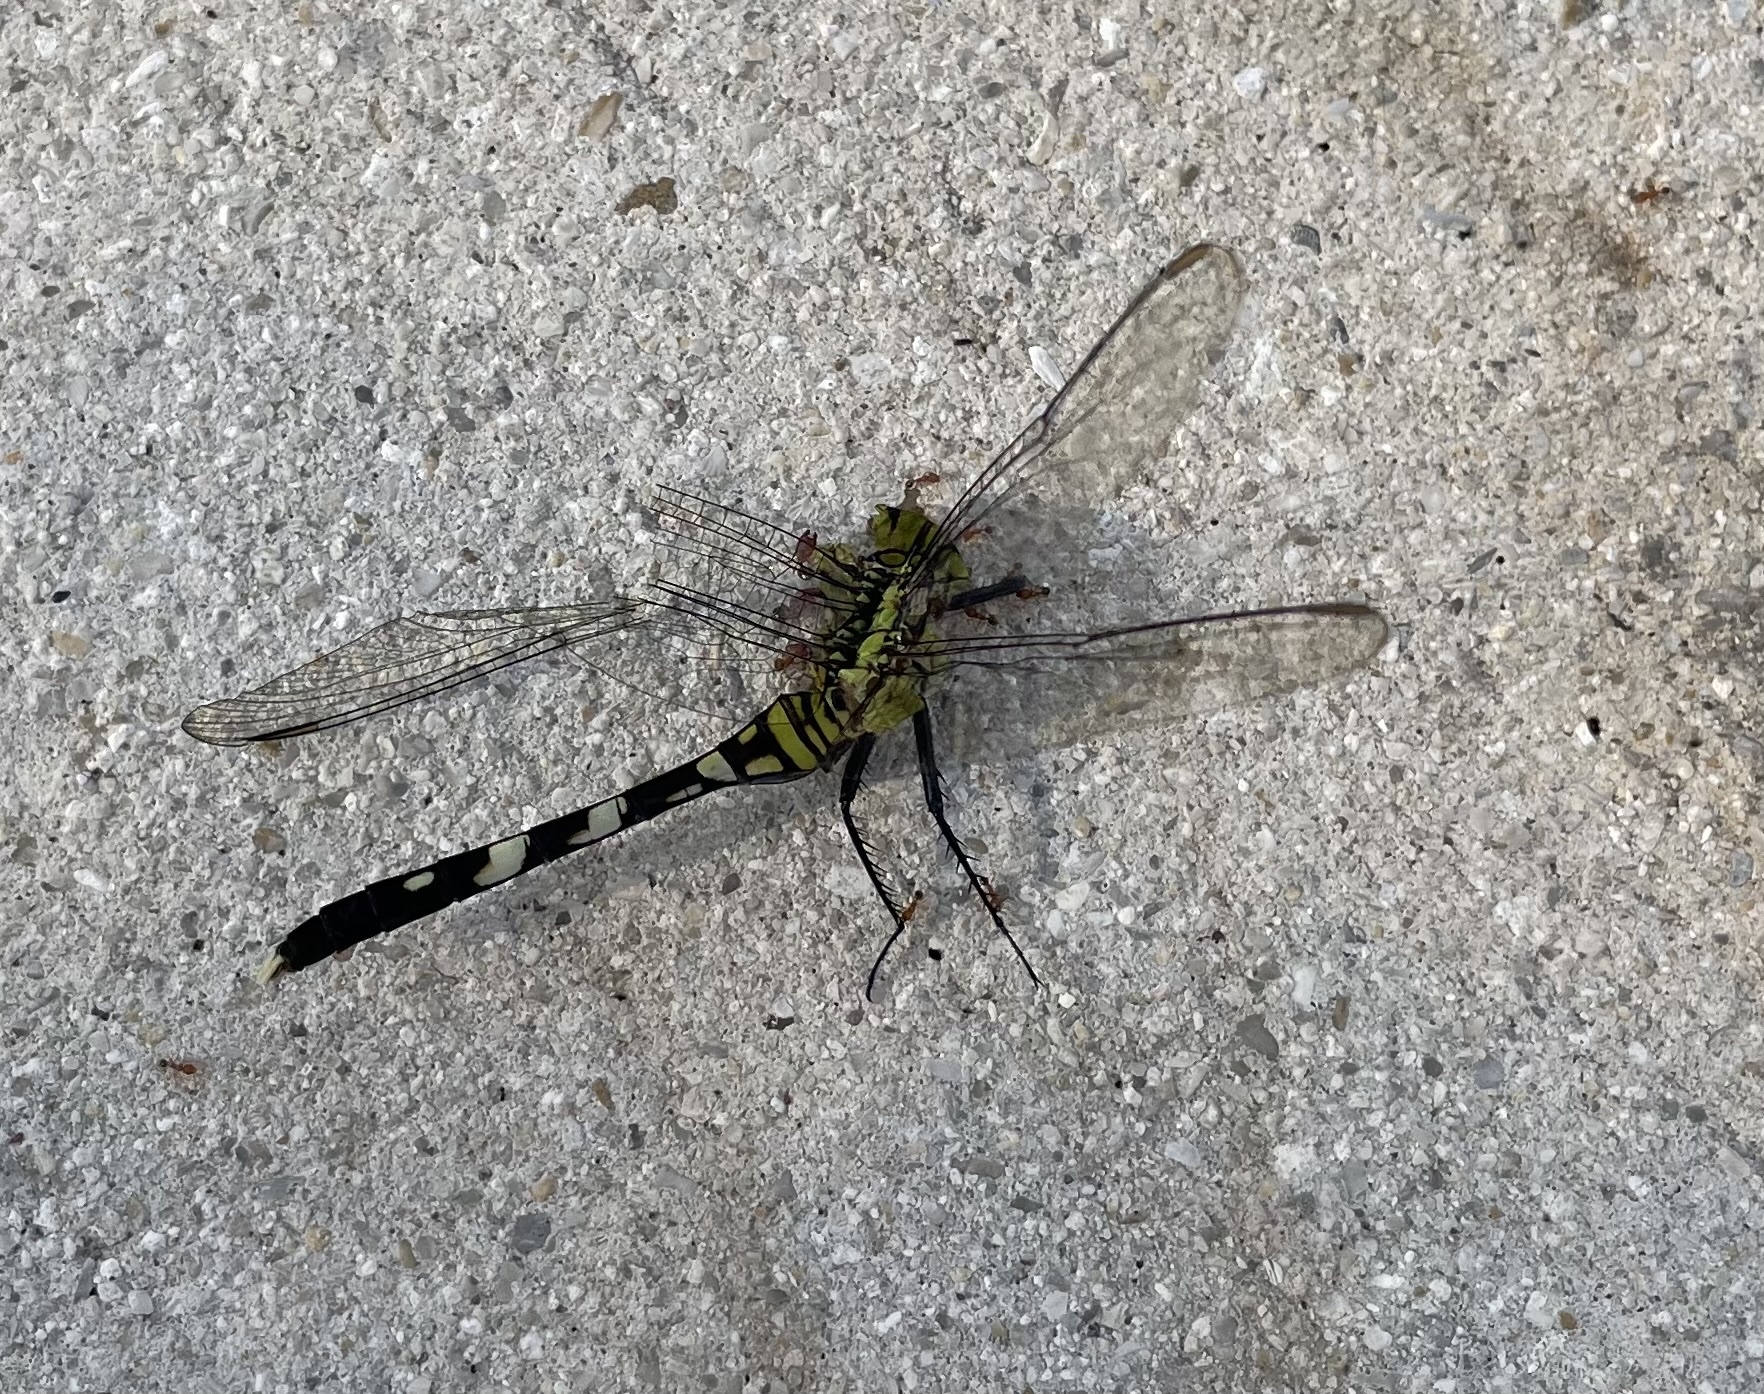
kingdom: Animalia
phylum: Arthropoda
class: Insecta
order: Odonata
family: Libellulidae
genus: Erythemis
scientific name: Erythemis simplicicollis
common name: Eastern pondhawk
